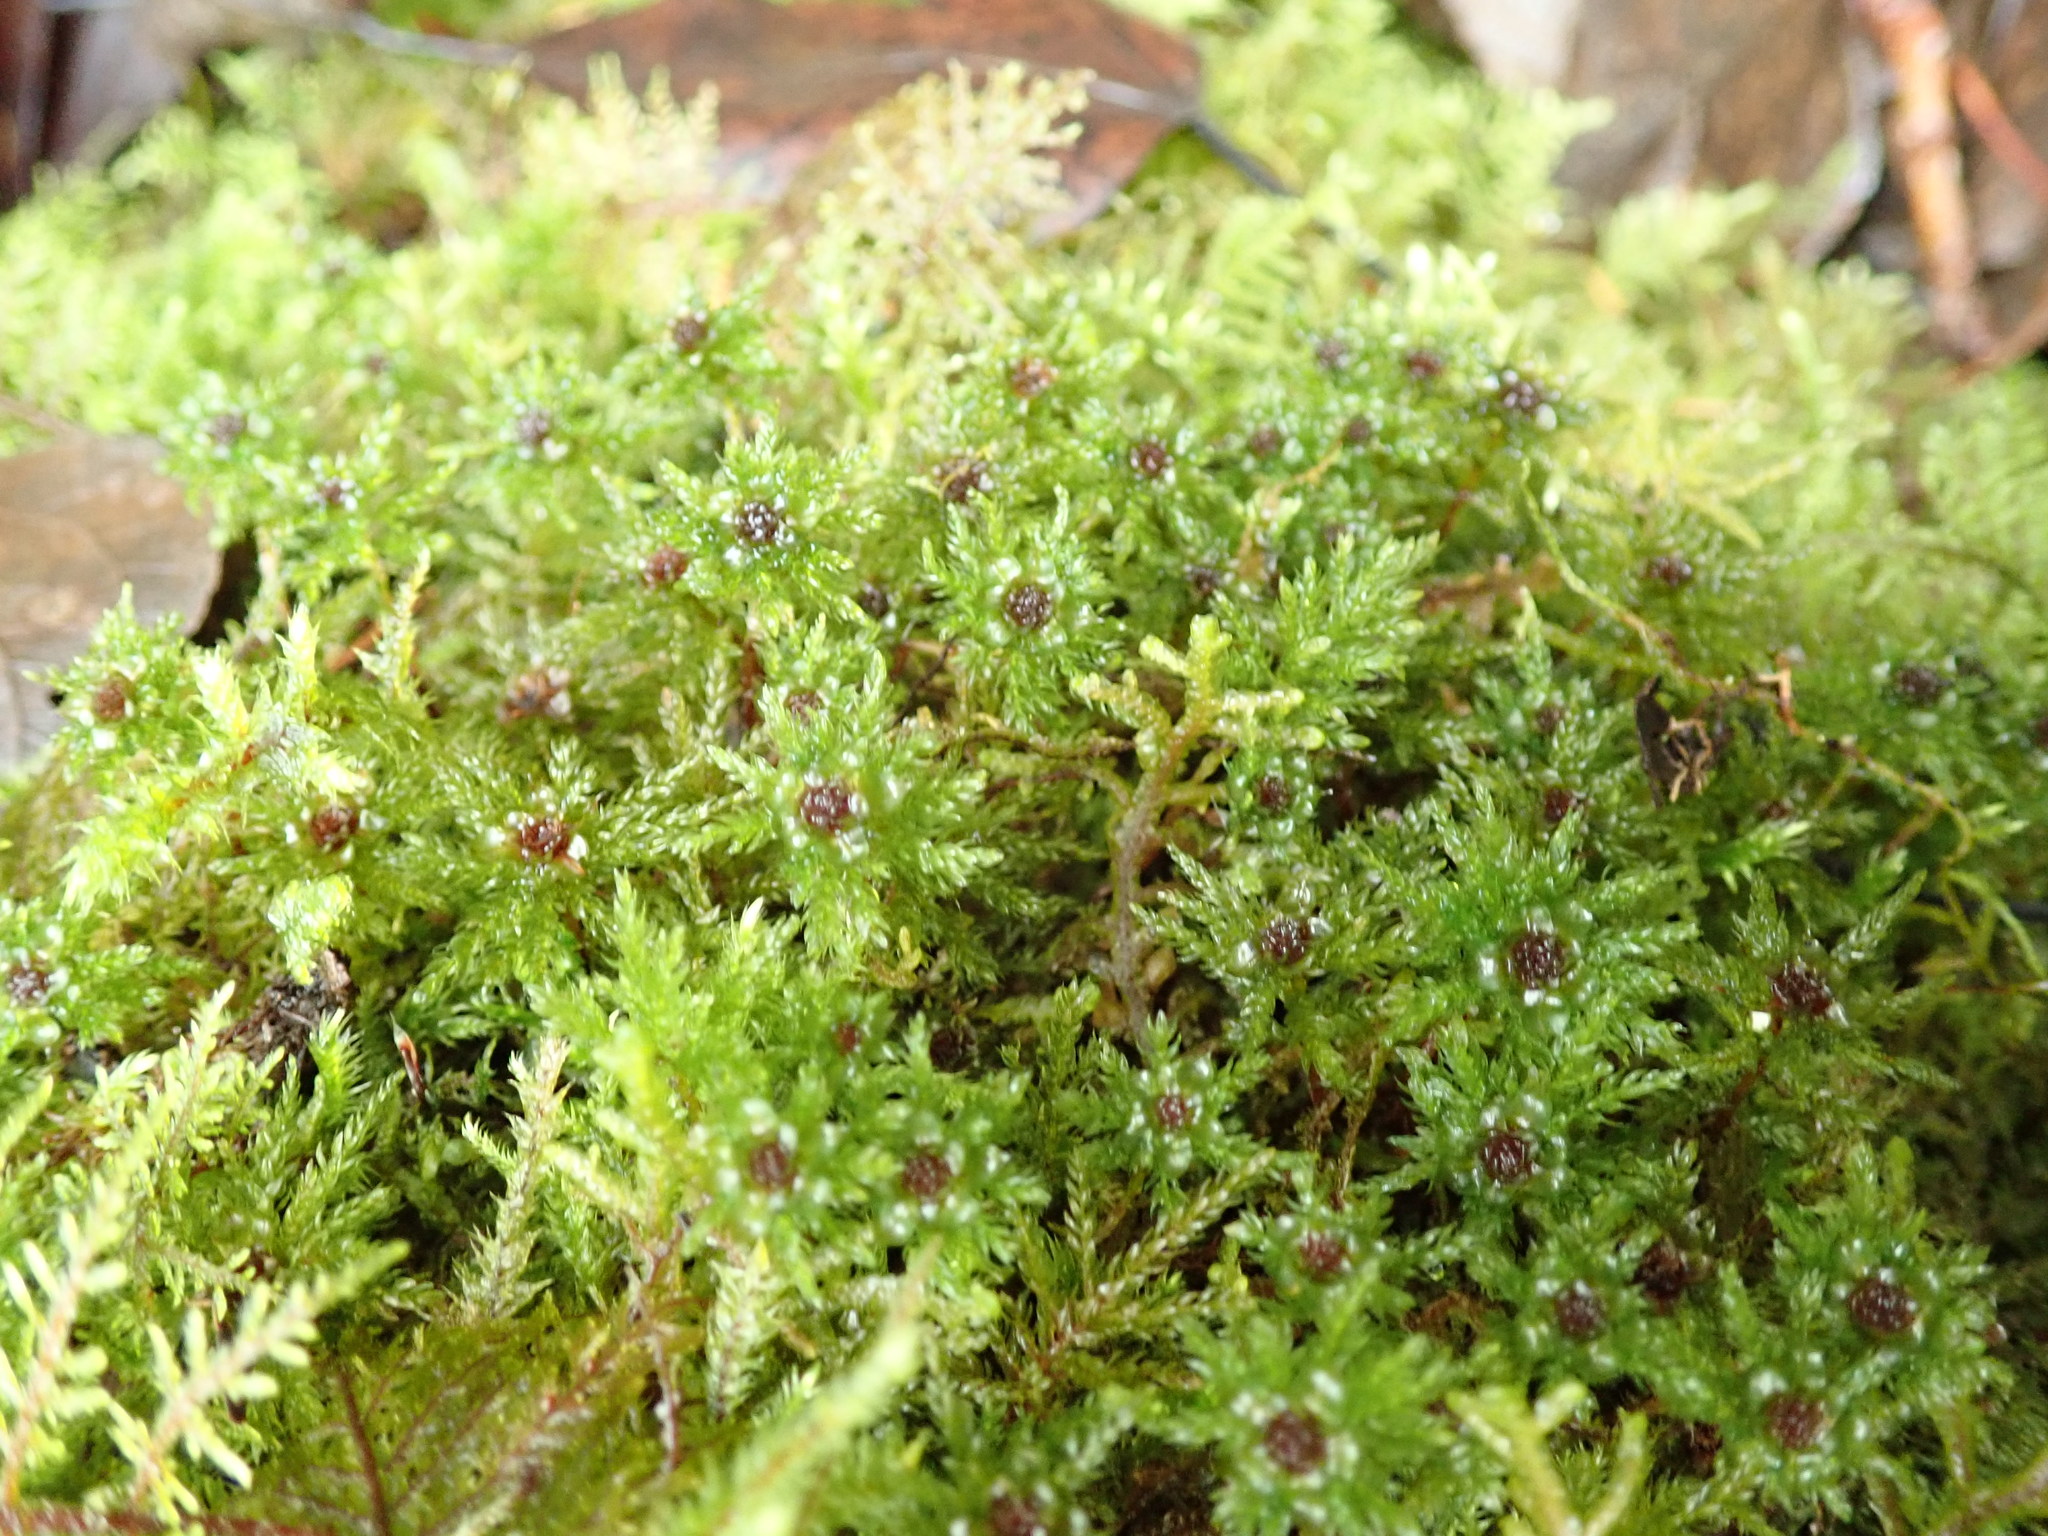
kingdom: Plantae
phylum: Bryophyta
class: Bryopsida
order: Bryales
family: Mniaceae
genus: Leucolepis
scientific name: Leucolepis acanthoneura
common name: Leucolepis umbrella moss
